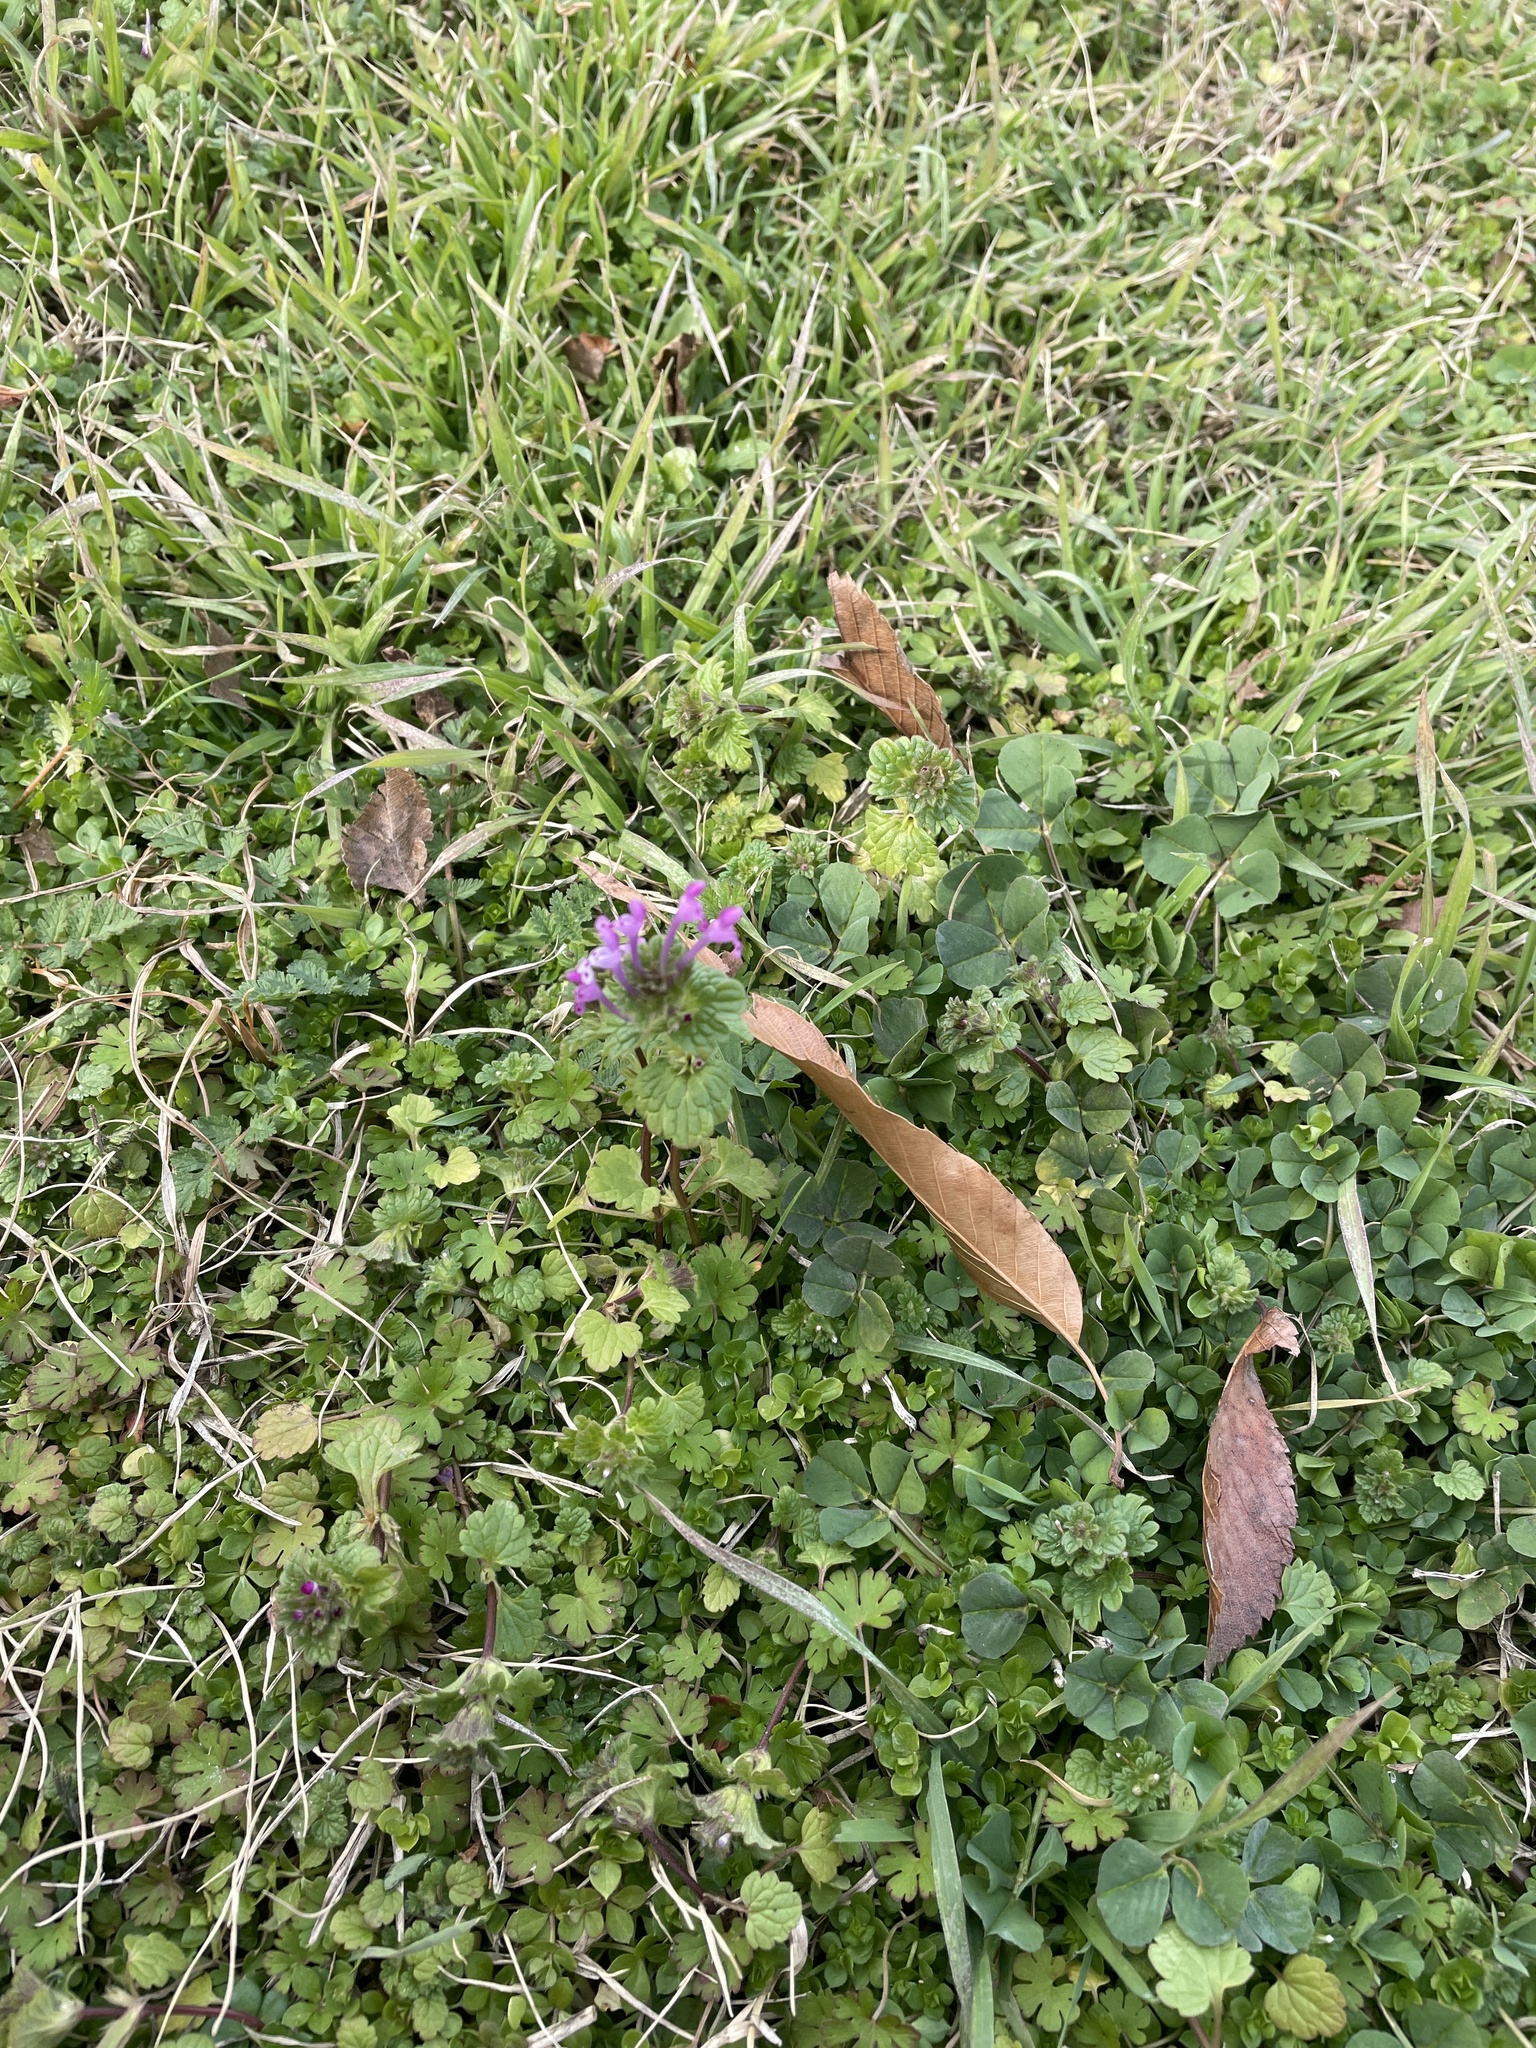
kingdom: Plantae
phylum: Tracheophyta
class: Magnoliopsida
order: Lamiales
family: Lamiaceae
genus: Lamium
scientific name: Lamium amplexicaule
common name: Henbit dead-nettle
